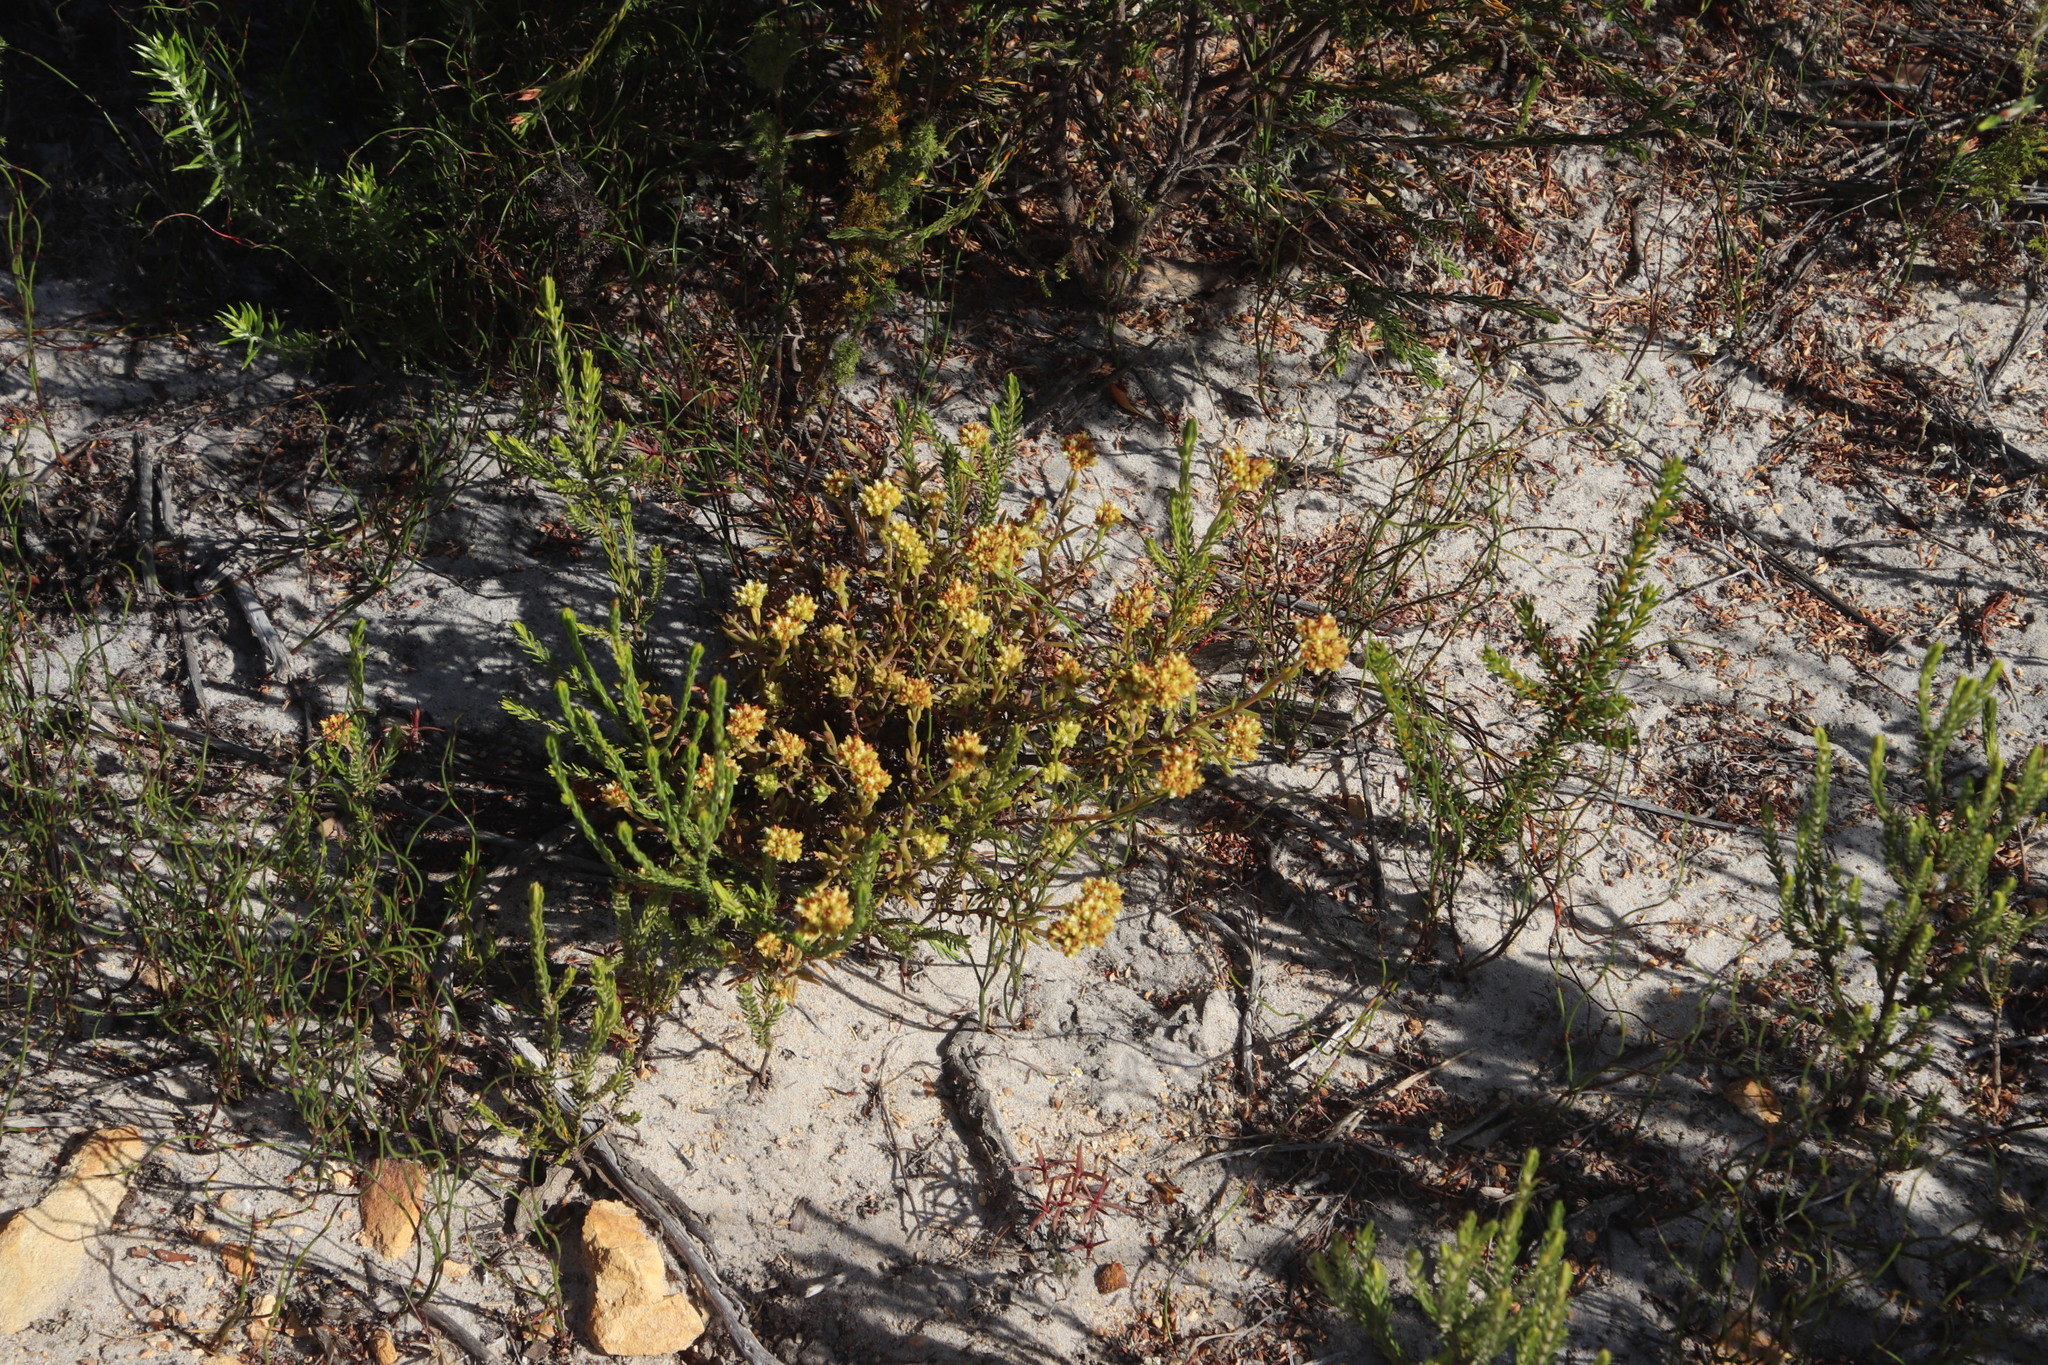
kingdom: Plantae
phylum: Tracheophyta
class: Magnoliopsida
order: Saxifragales
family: Crassulaceae
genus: Crassula
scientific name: Crassula subulata
